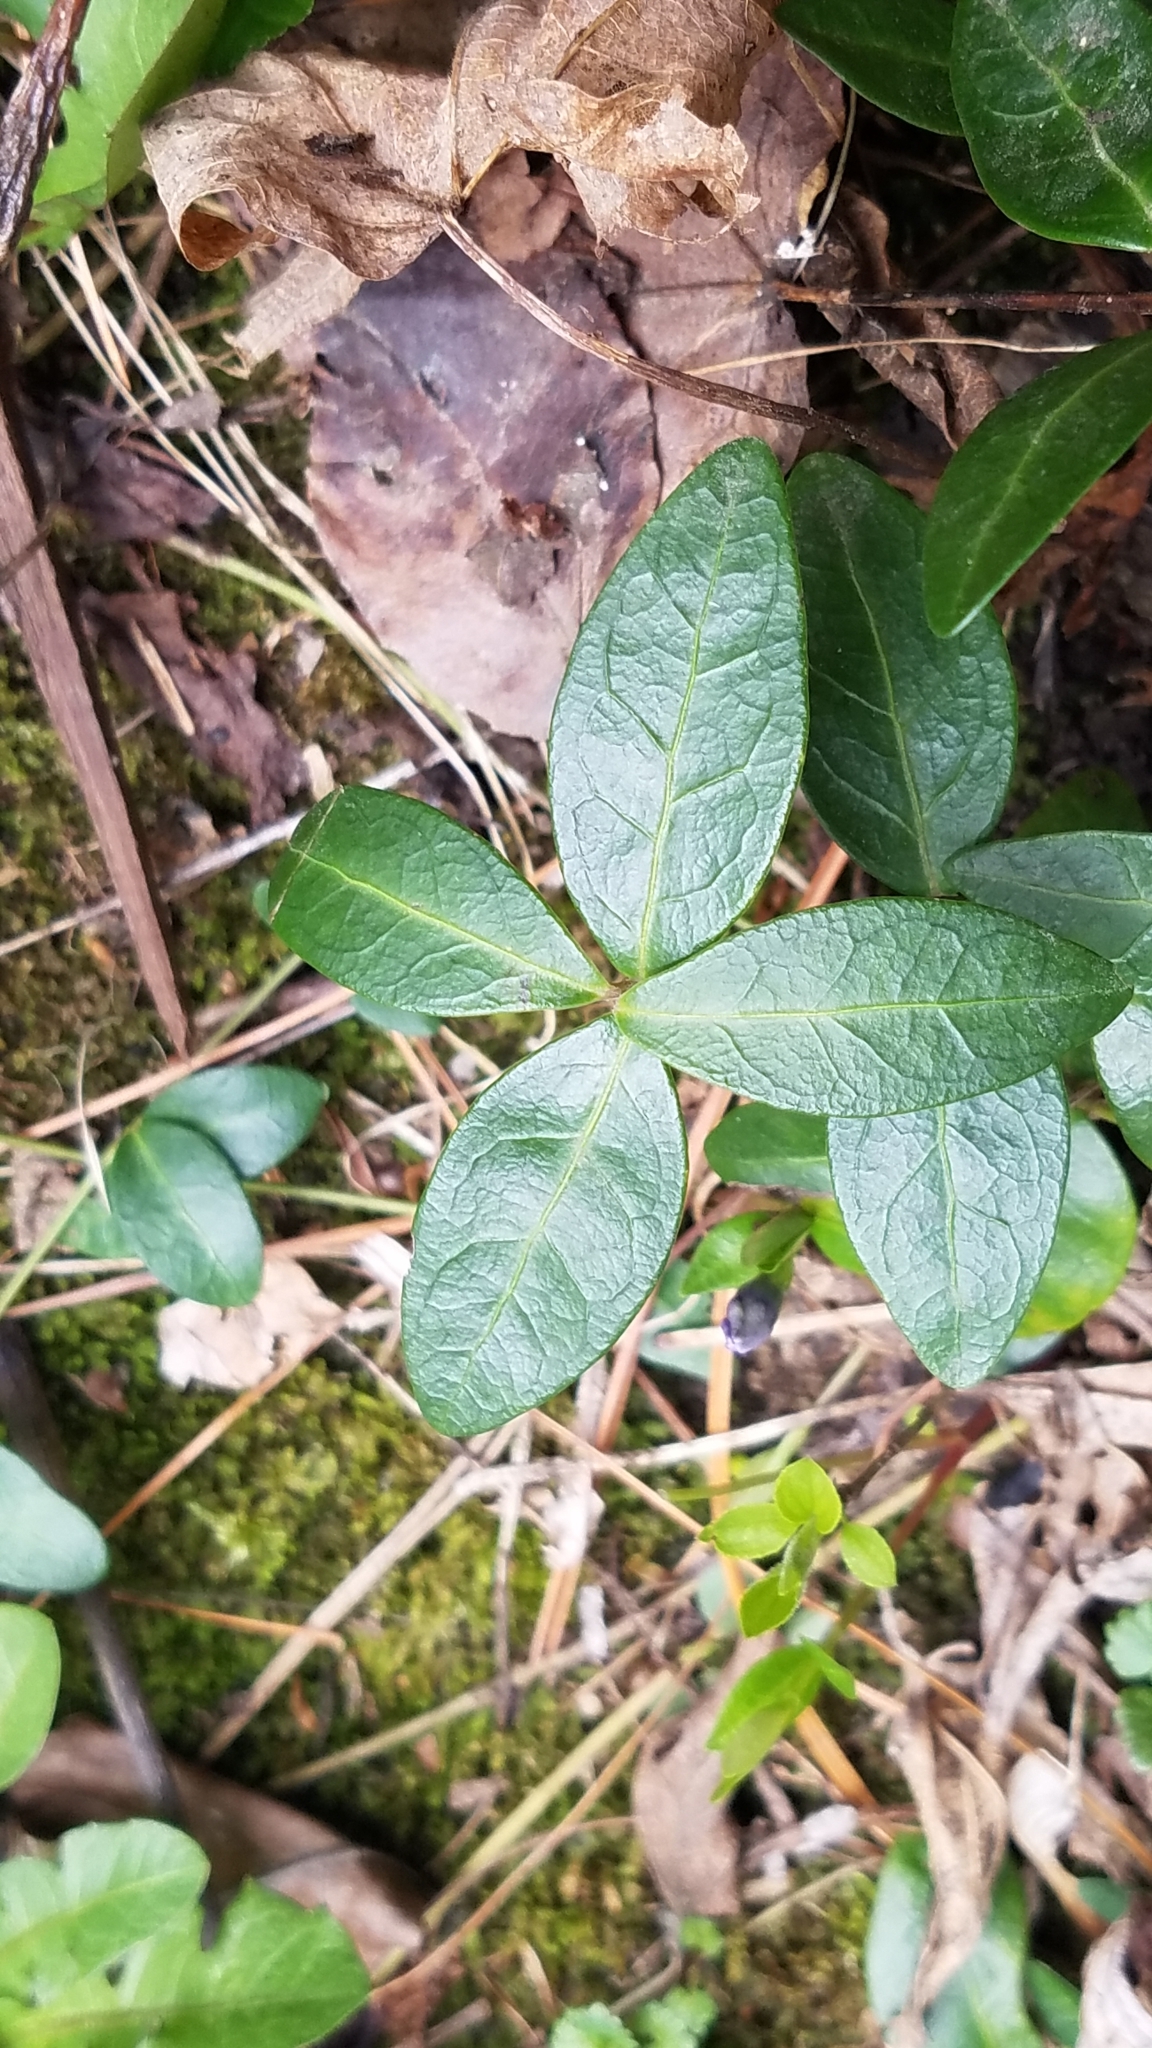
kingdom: Plantae
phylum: Tracheophyta
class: Magnoliopsida
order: Gentianales
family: Apocynaceae
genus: Vinca
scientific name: Vinca minor
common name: Lesser periwinkle
